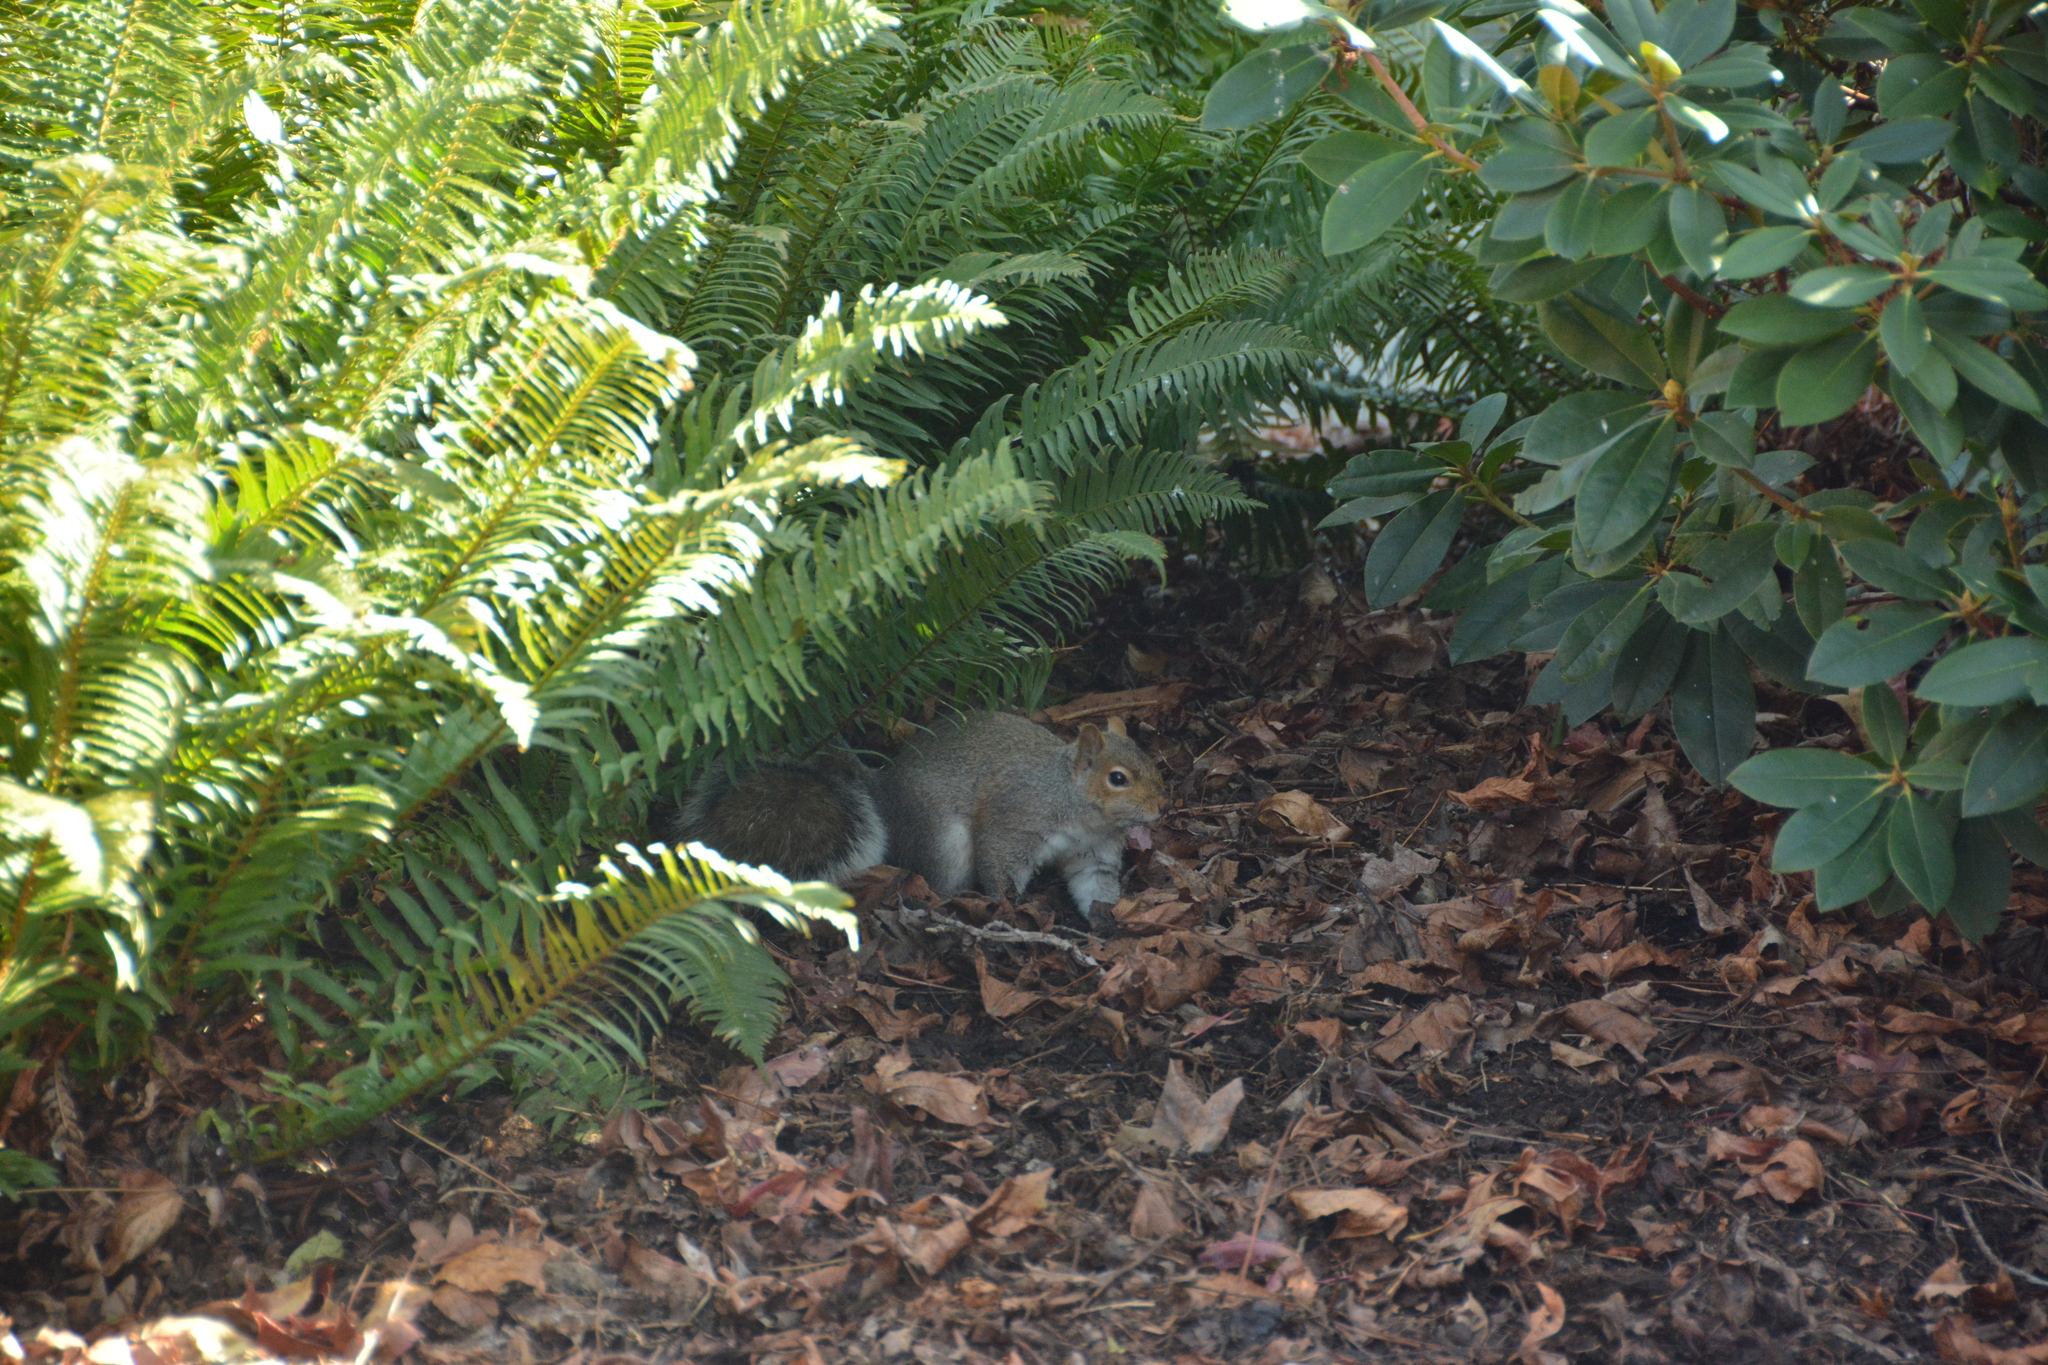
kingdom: Animalia
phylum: Chordata
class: Mammalia
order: Rodentia
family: Sciuridae
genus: Sciurus
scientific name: Sciurus carolinensis
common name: Eastern gray squirrel
